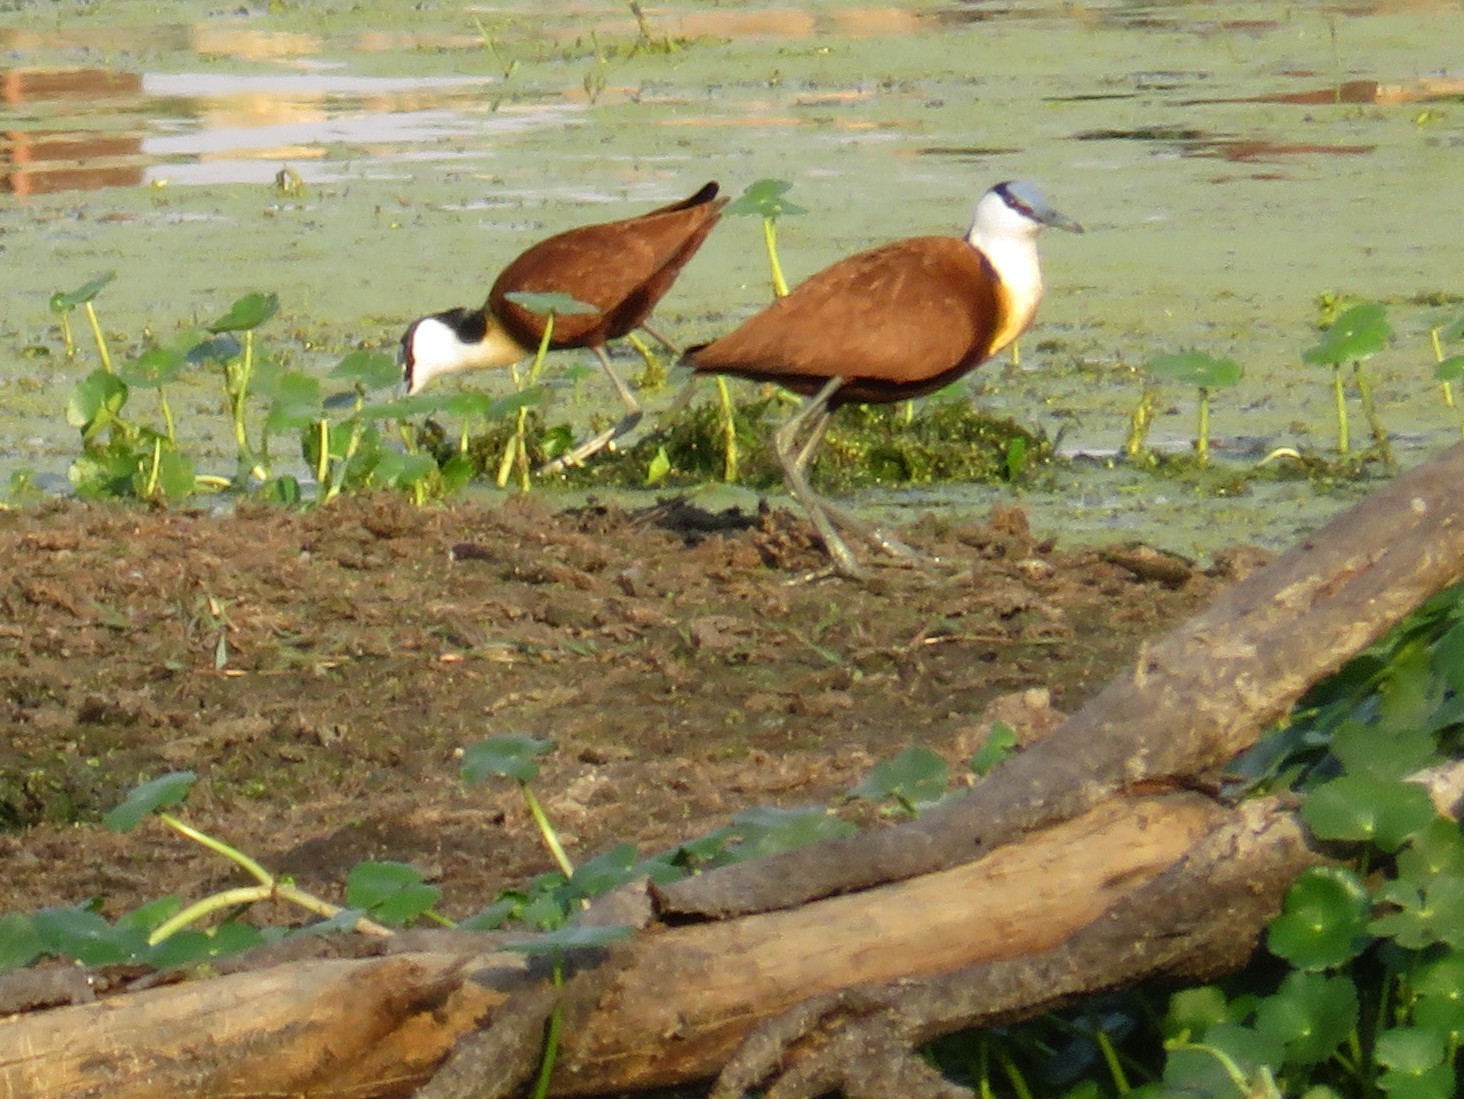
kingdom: Animalia
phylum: Chordata
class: Aves
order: Charadriiformes
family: Jacanidae
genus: Actophilornis
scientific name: Actophilornis africanus
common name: African jacana
